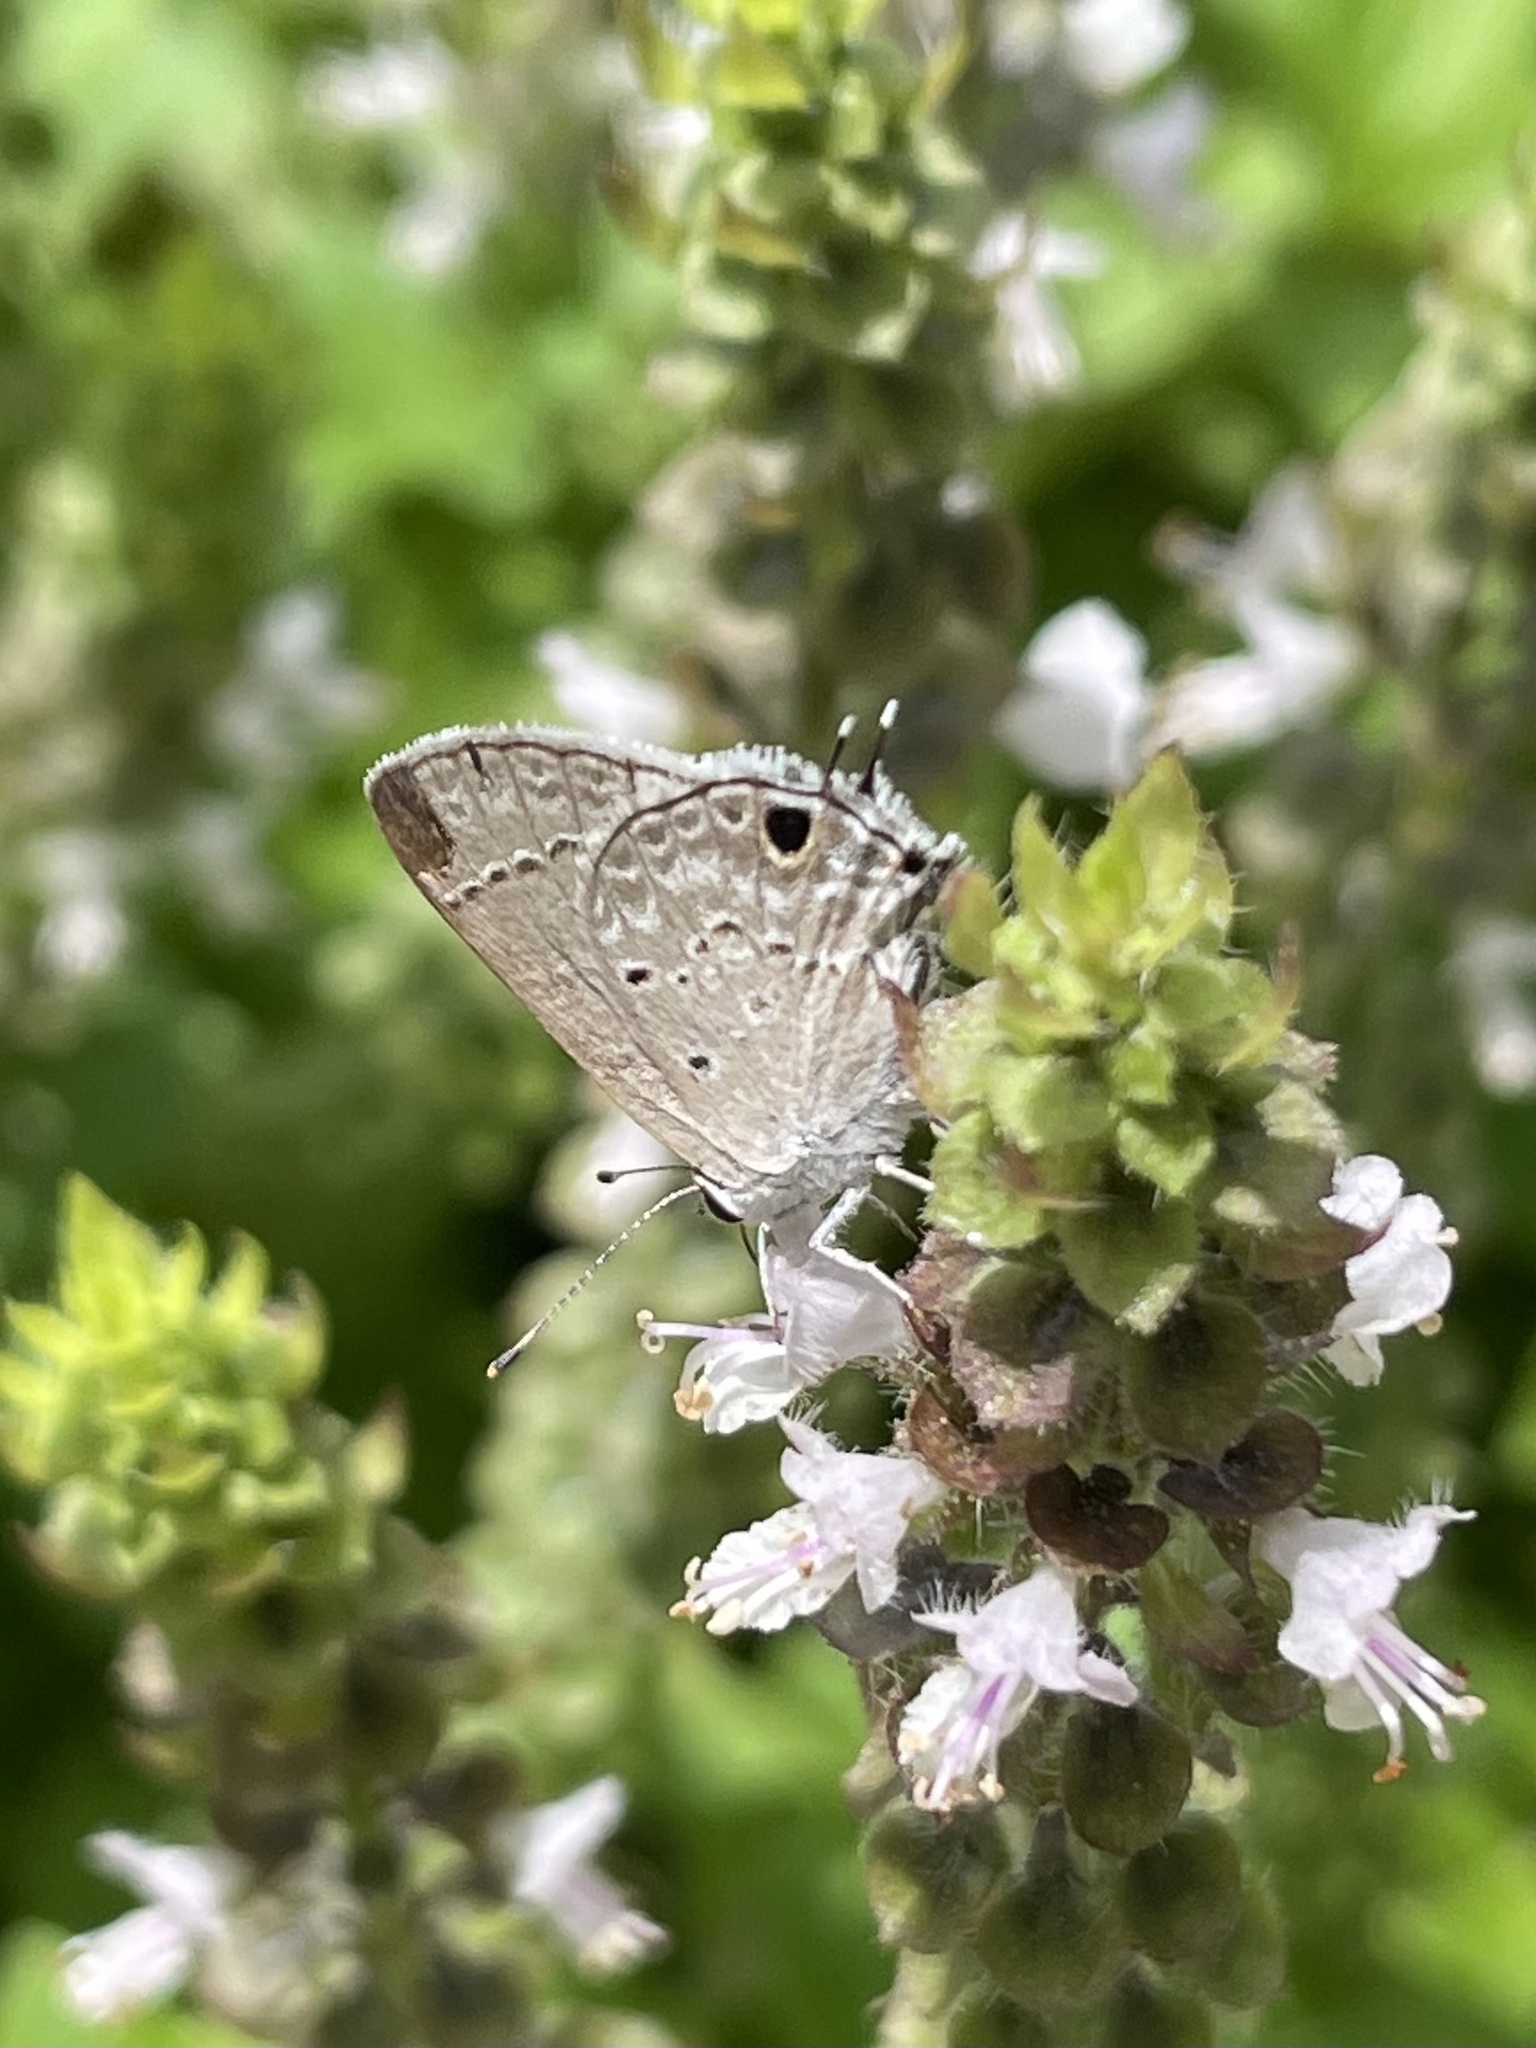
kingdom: Animalia
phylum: Arthropoda
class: Insecta
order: Lepidoptera
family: Lycaenidae
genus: Callicista
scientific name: Callicista columella
